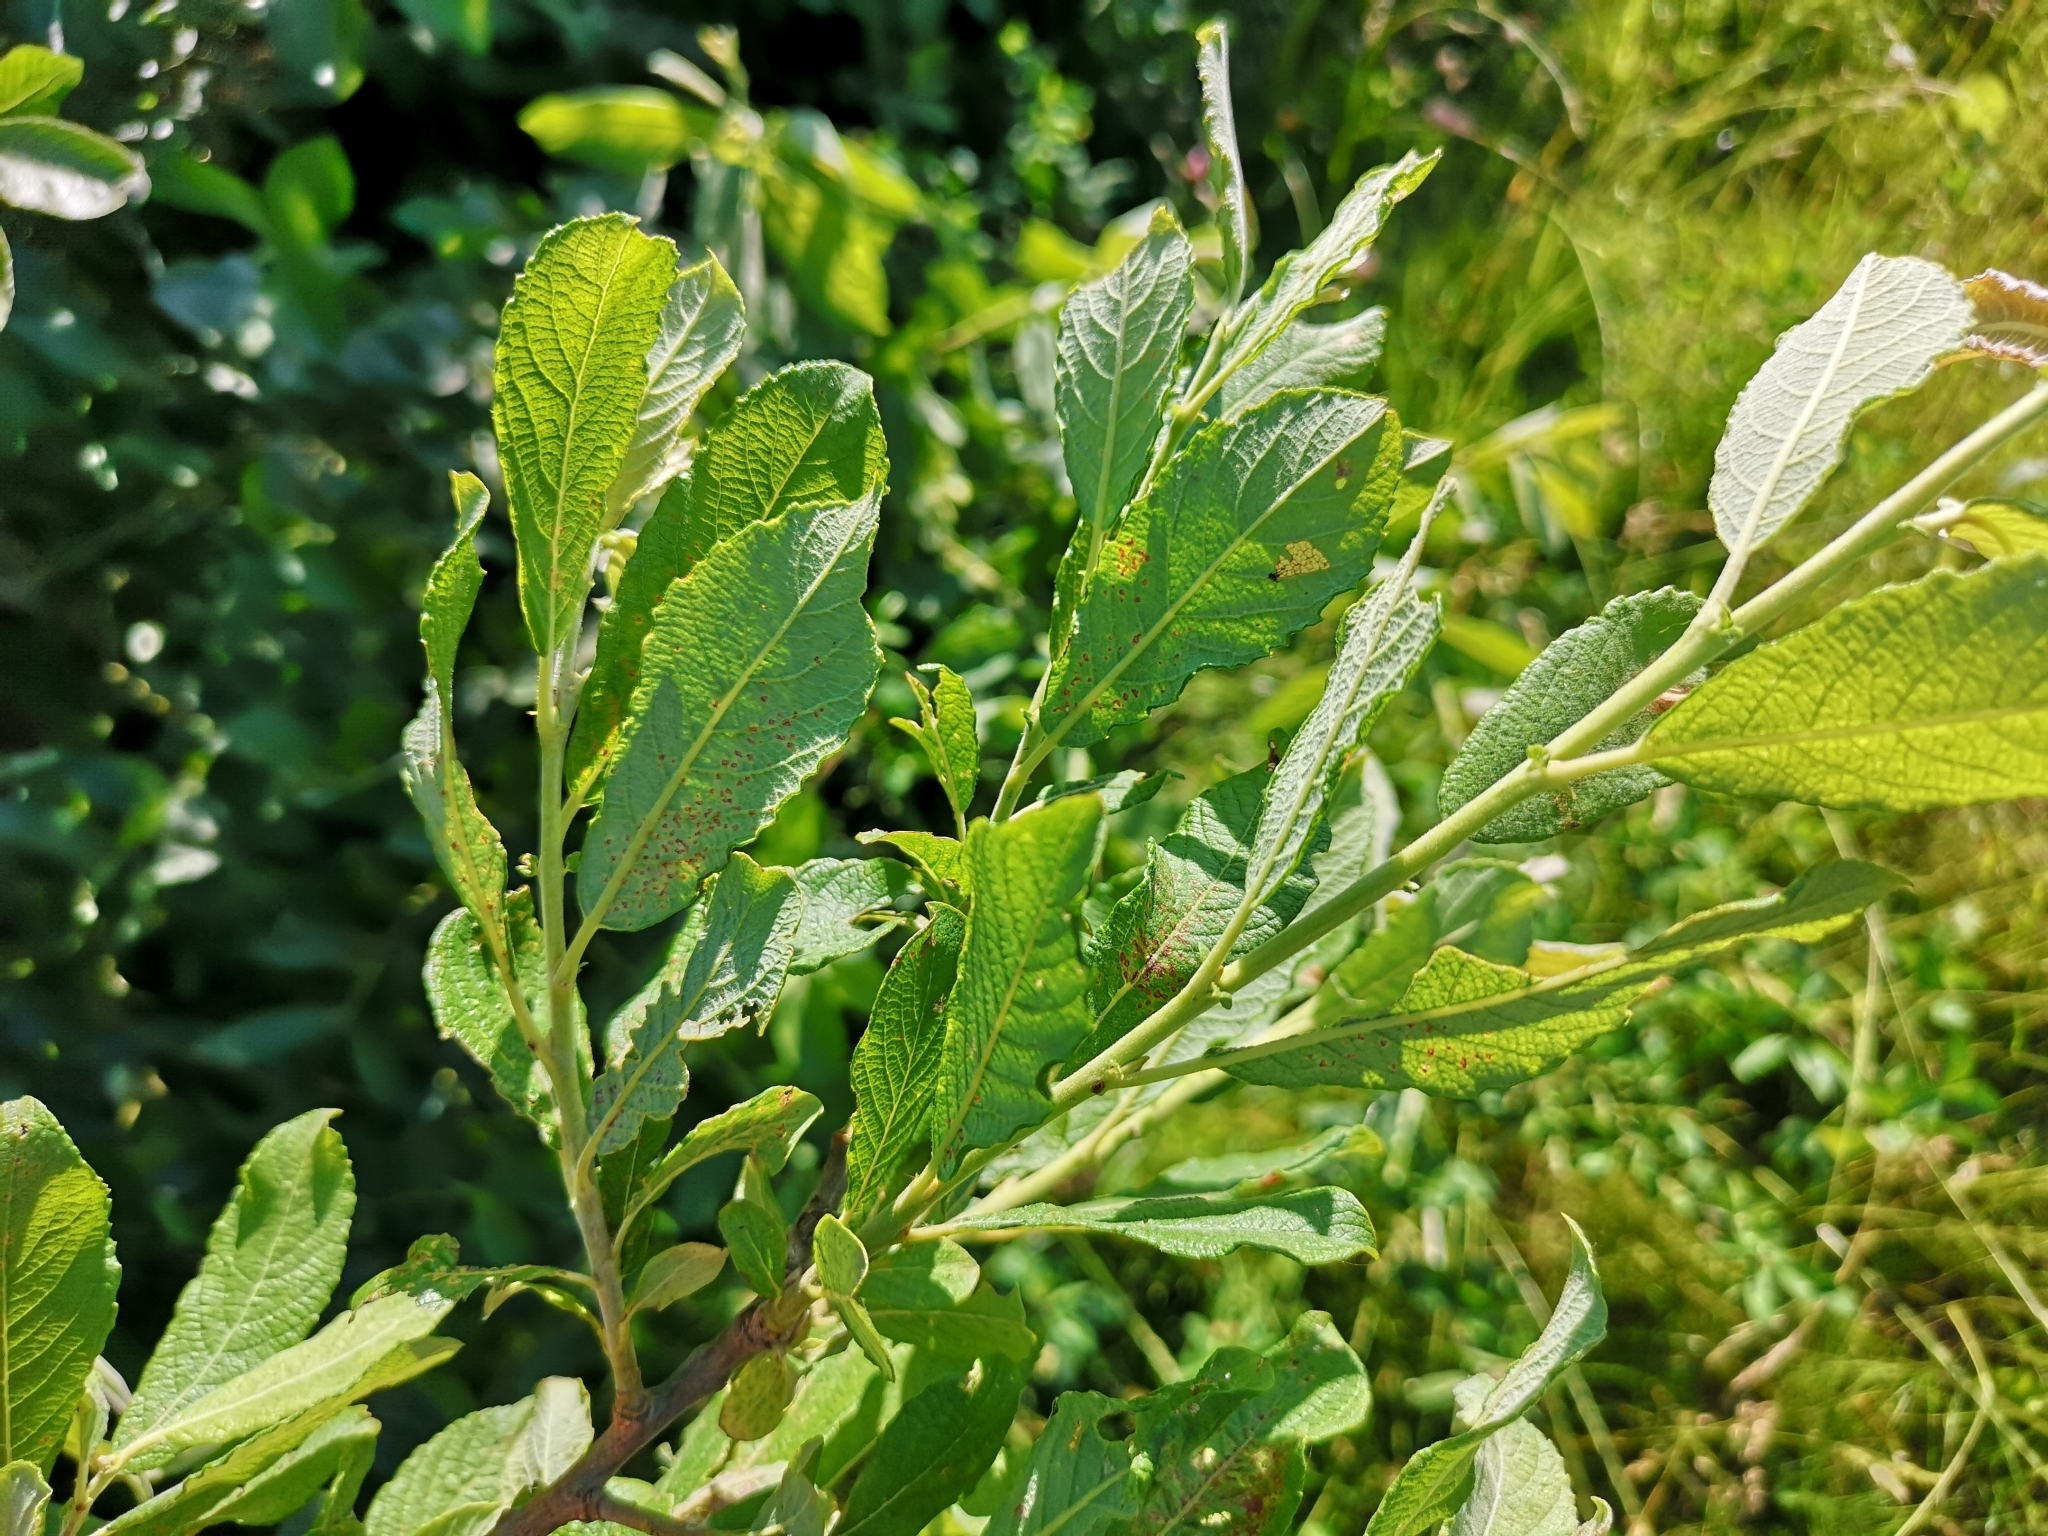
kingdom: Plantae
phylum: Tracheophyta
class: Magnoliopsida
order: Malpighiales
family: Salicaceae
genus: Salix
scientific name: Salix cinerea
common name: Common sallow
